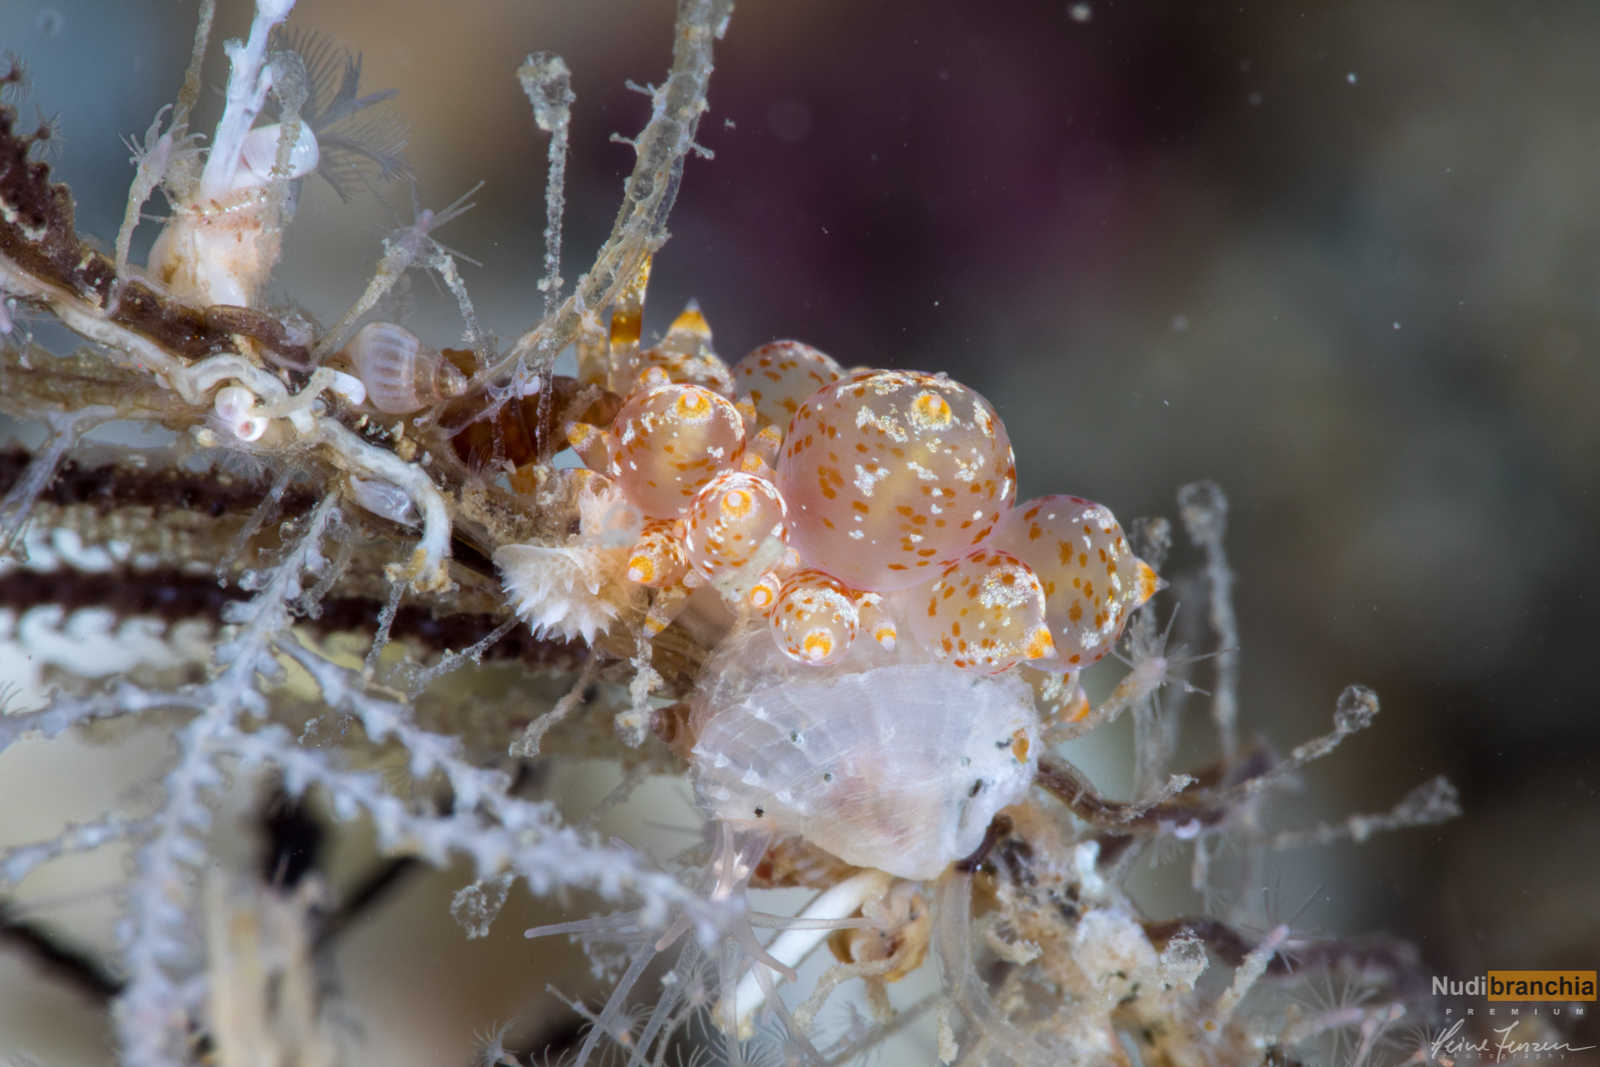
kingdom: Animalia
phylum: Mollusca
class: Gastropoda
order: Nudibranchia
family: Eubranchidae
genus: Amphorina
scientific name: Amphorina pallida
